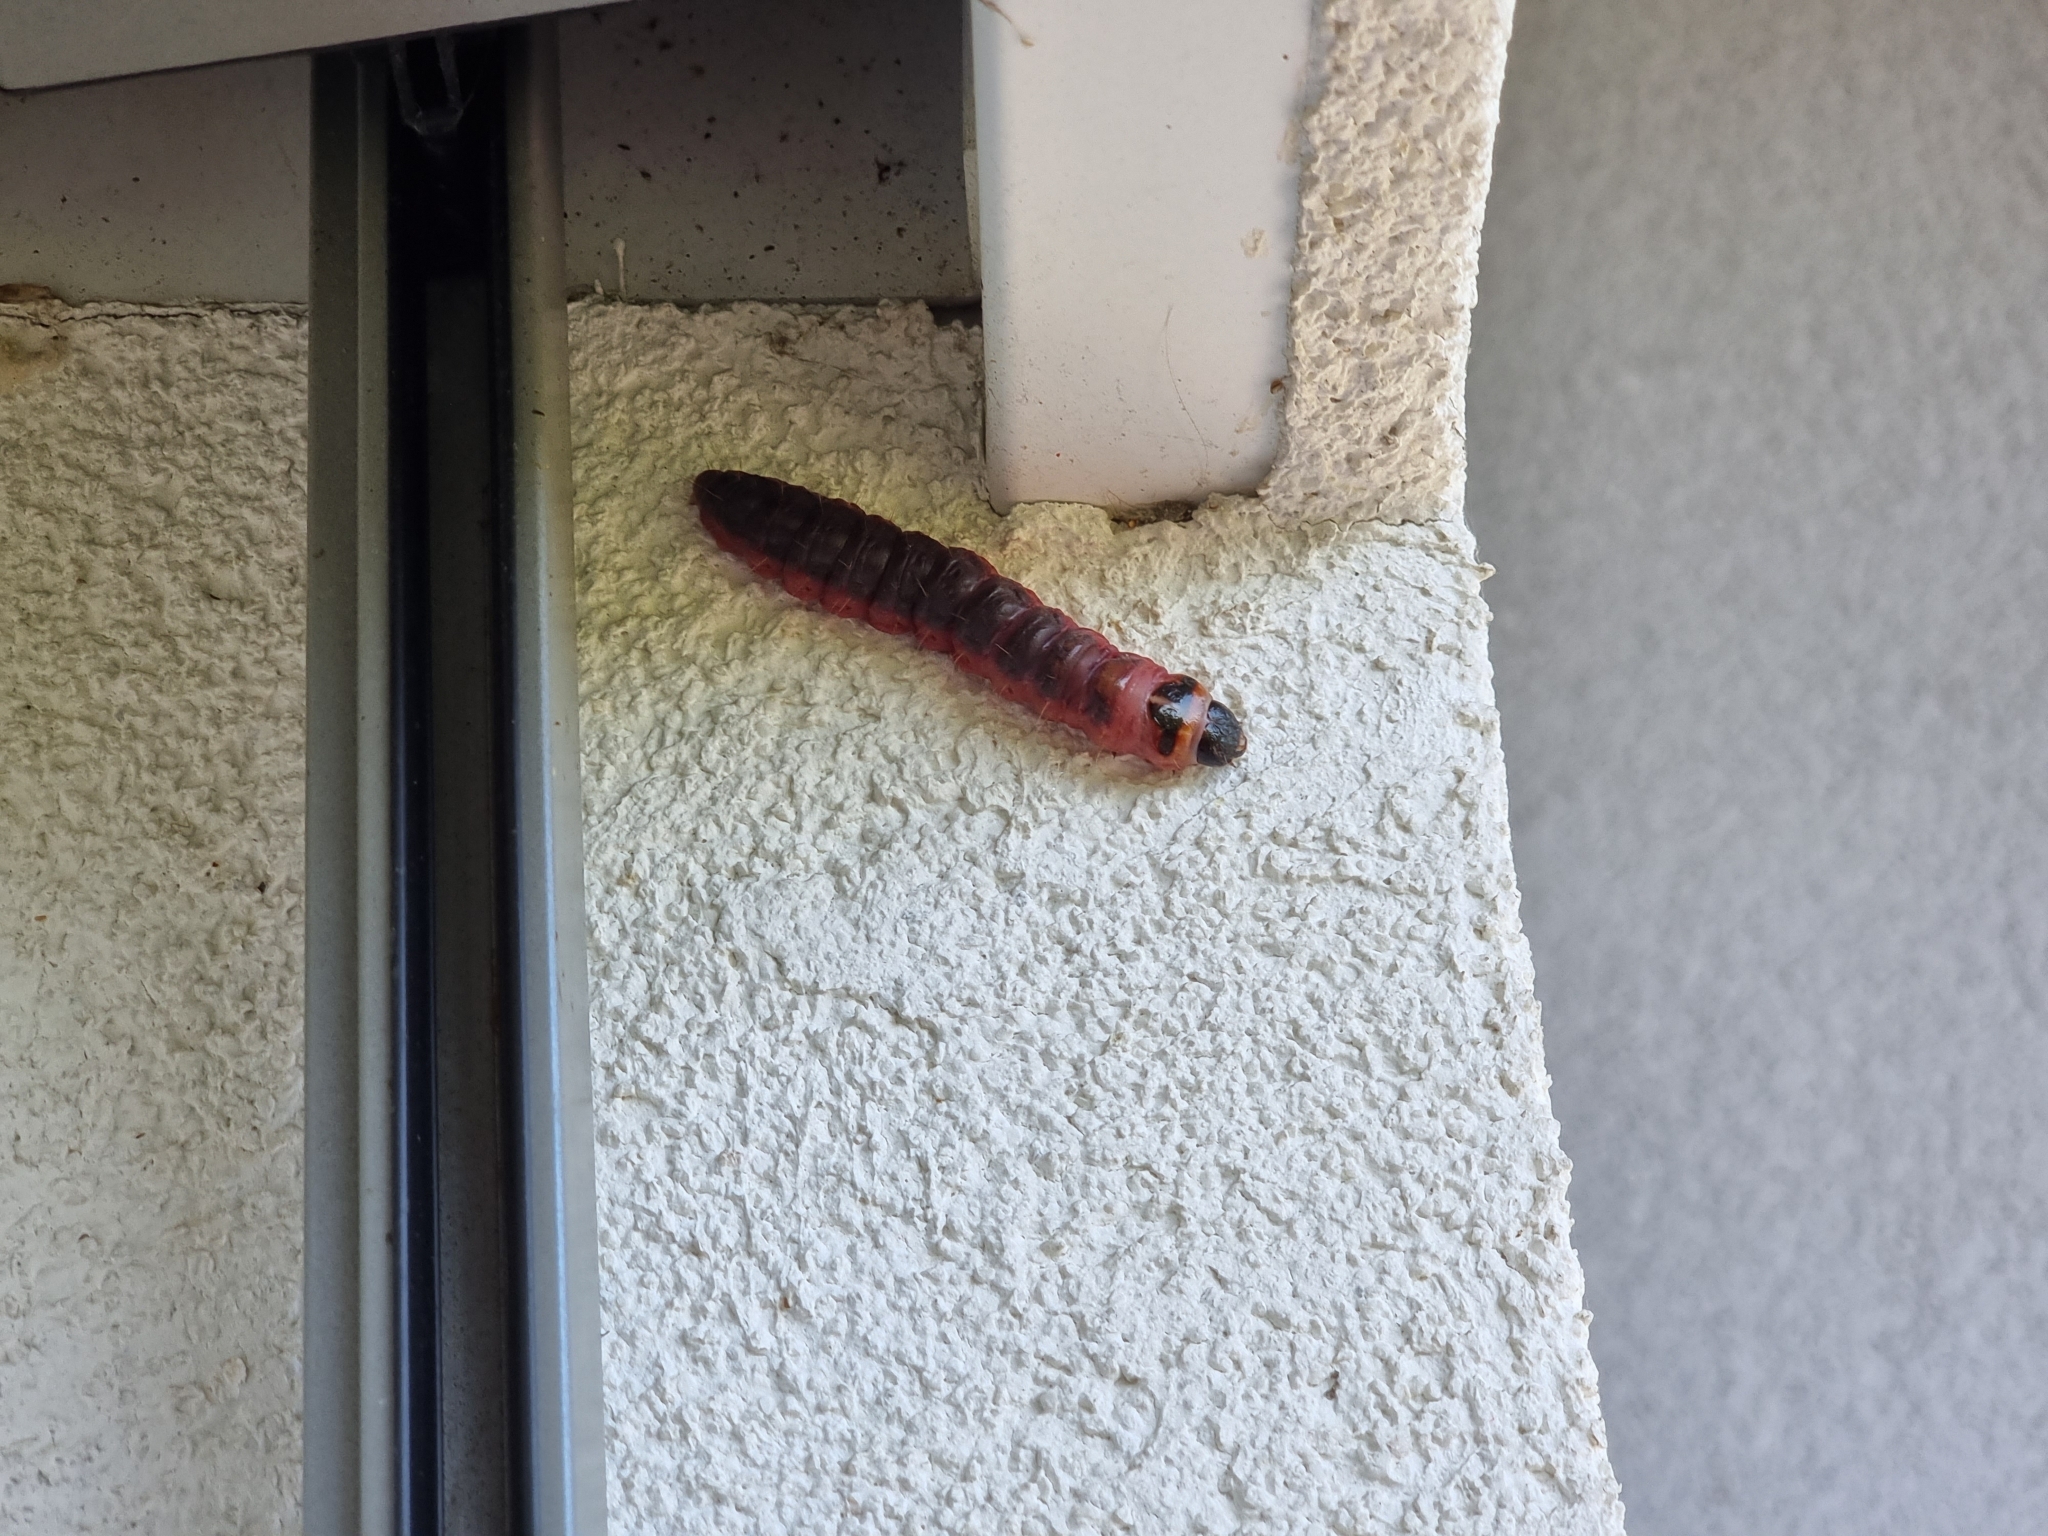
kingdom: Animalia
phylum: Arthropoda
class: Insecta
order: Lepidoptera
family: Cossidae
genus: Cossus
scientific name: Cossus cossus
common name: Goat moth
